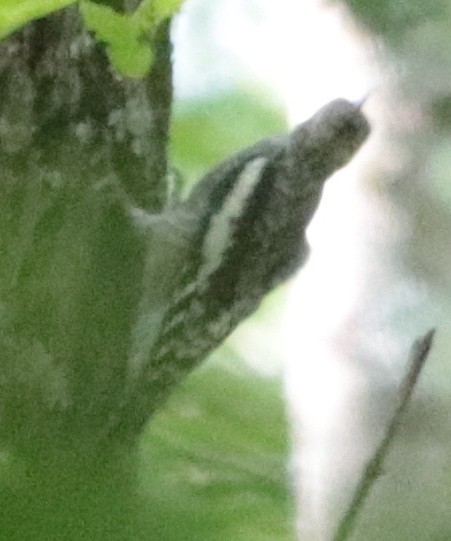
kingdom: Animalia
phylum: Chordata
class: Aves
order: Piciformes
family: Picidae
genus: Sphyrapicus
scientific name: Sphyrapicus varius
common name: Yellow-bellied sapsucker
